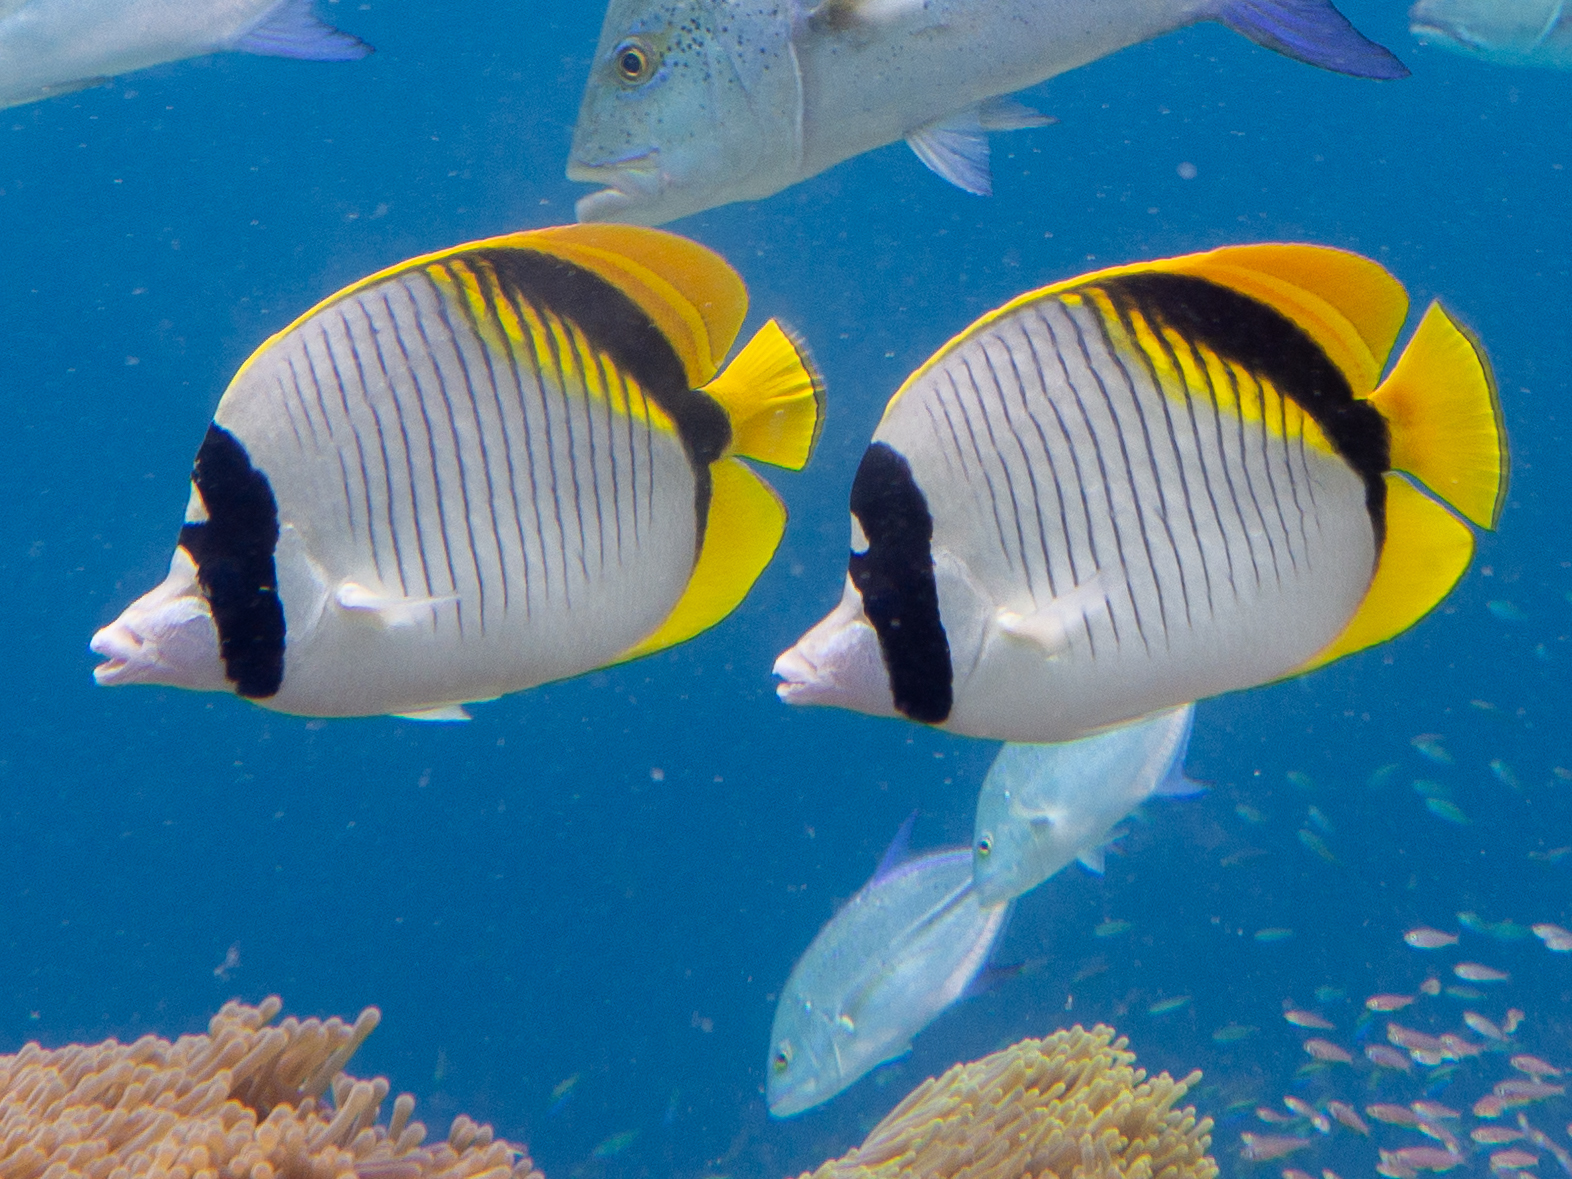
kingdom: Animalia
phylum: Chordata
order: Perciformes
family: Chaetodontidae
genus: Chaetodon
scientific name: Chaetodon lineolatus
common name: Lined butterflyfish
